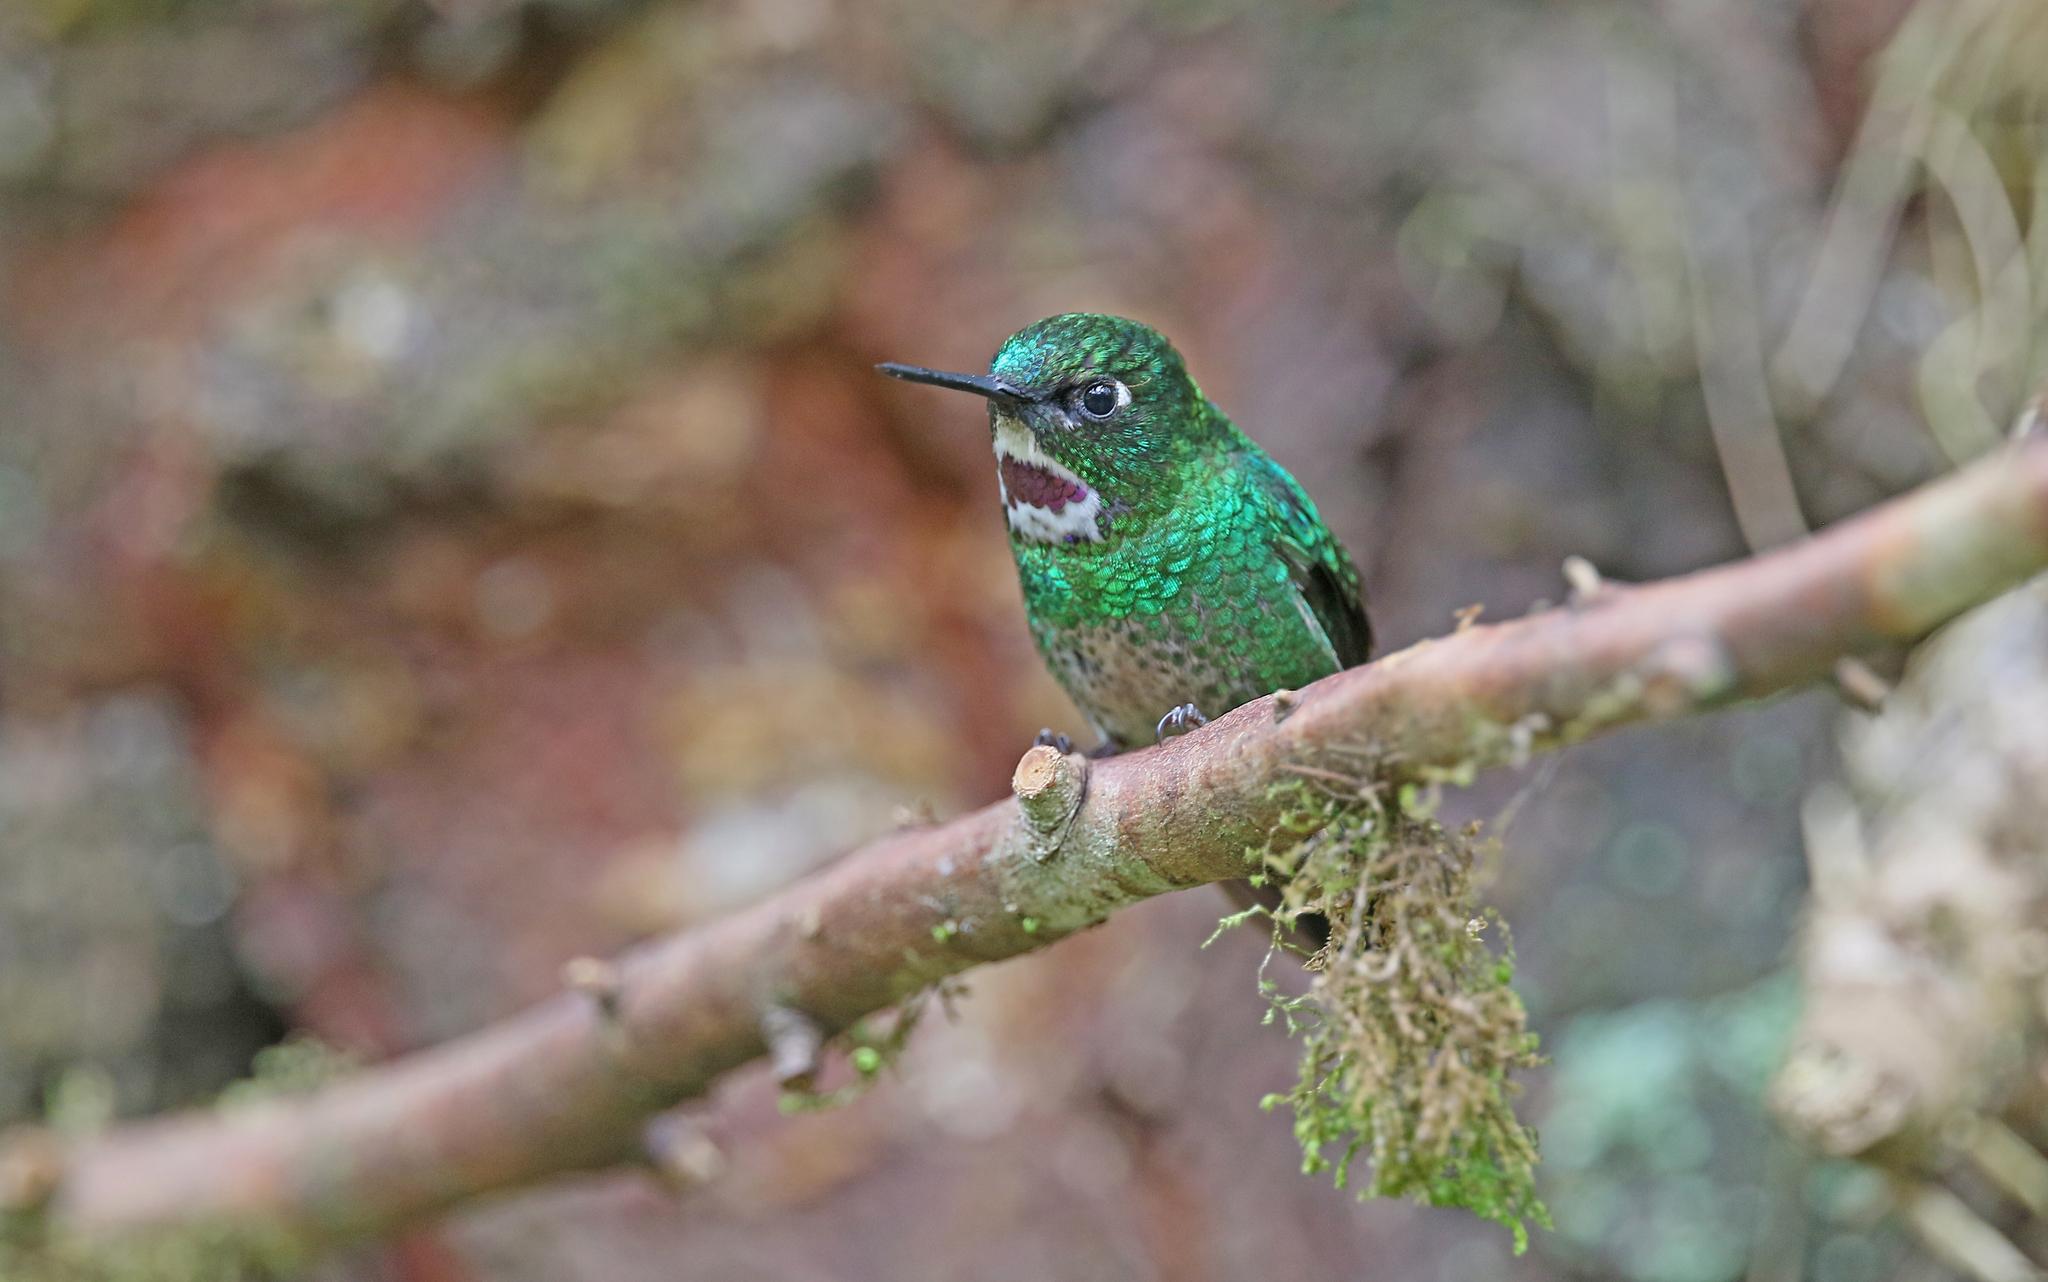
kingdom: Animalia
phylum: Chordata
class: Aves
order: Apodiformes
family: Trochilidae
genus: Heliangelus
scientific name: Heliangelus exortis
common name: Tourmaline sunangel
